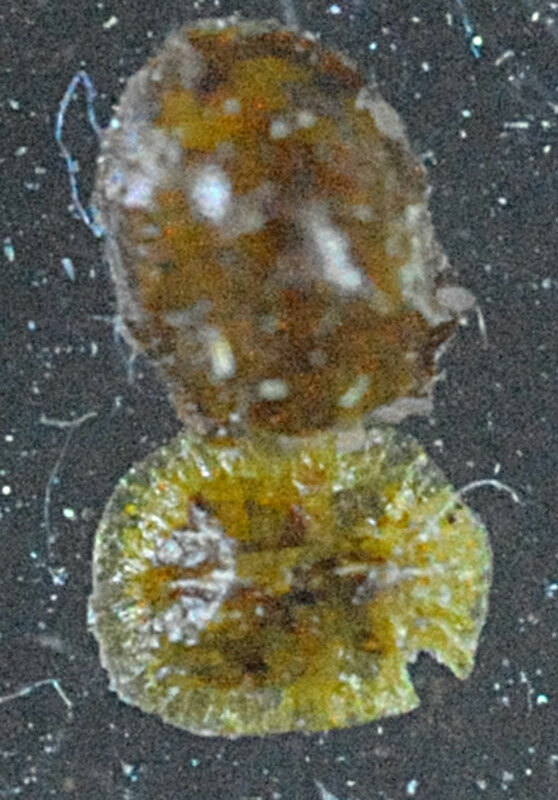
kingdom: Animalia
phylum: Arthropoda
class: Insecta
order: Hemiptera
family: Coccidae
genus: Coccus
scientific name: Coccus hesperidum
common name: Soft brown scale
